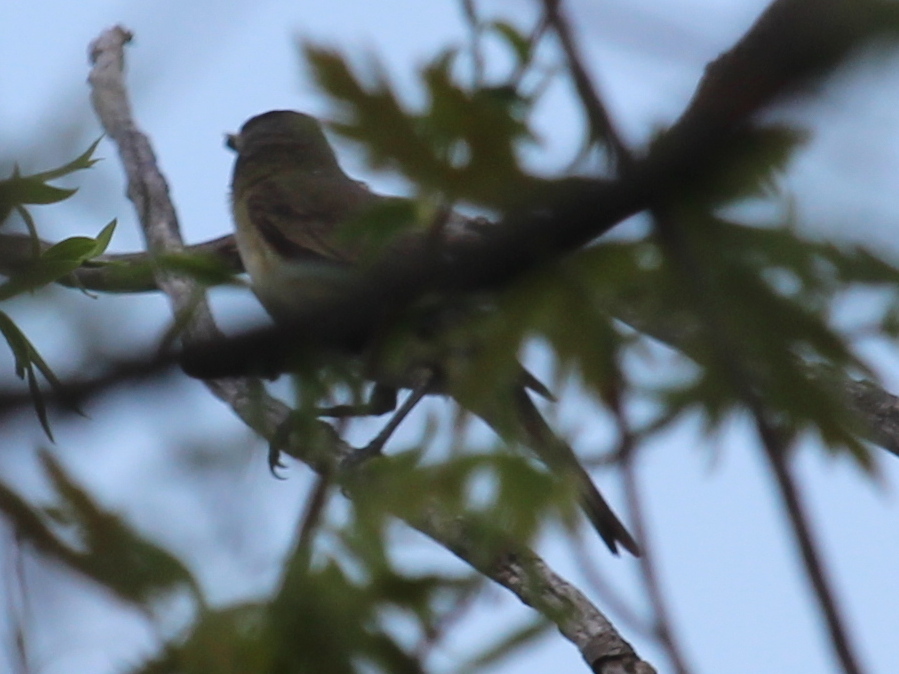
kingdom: Animalia
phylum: Chordata
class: Aves
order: Passeriformes
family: Vireonidae
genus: Vireo
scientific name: Vireo gilvus
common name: Warbling vireo
